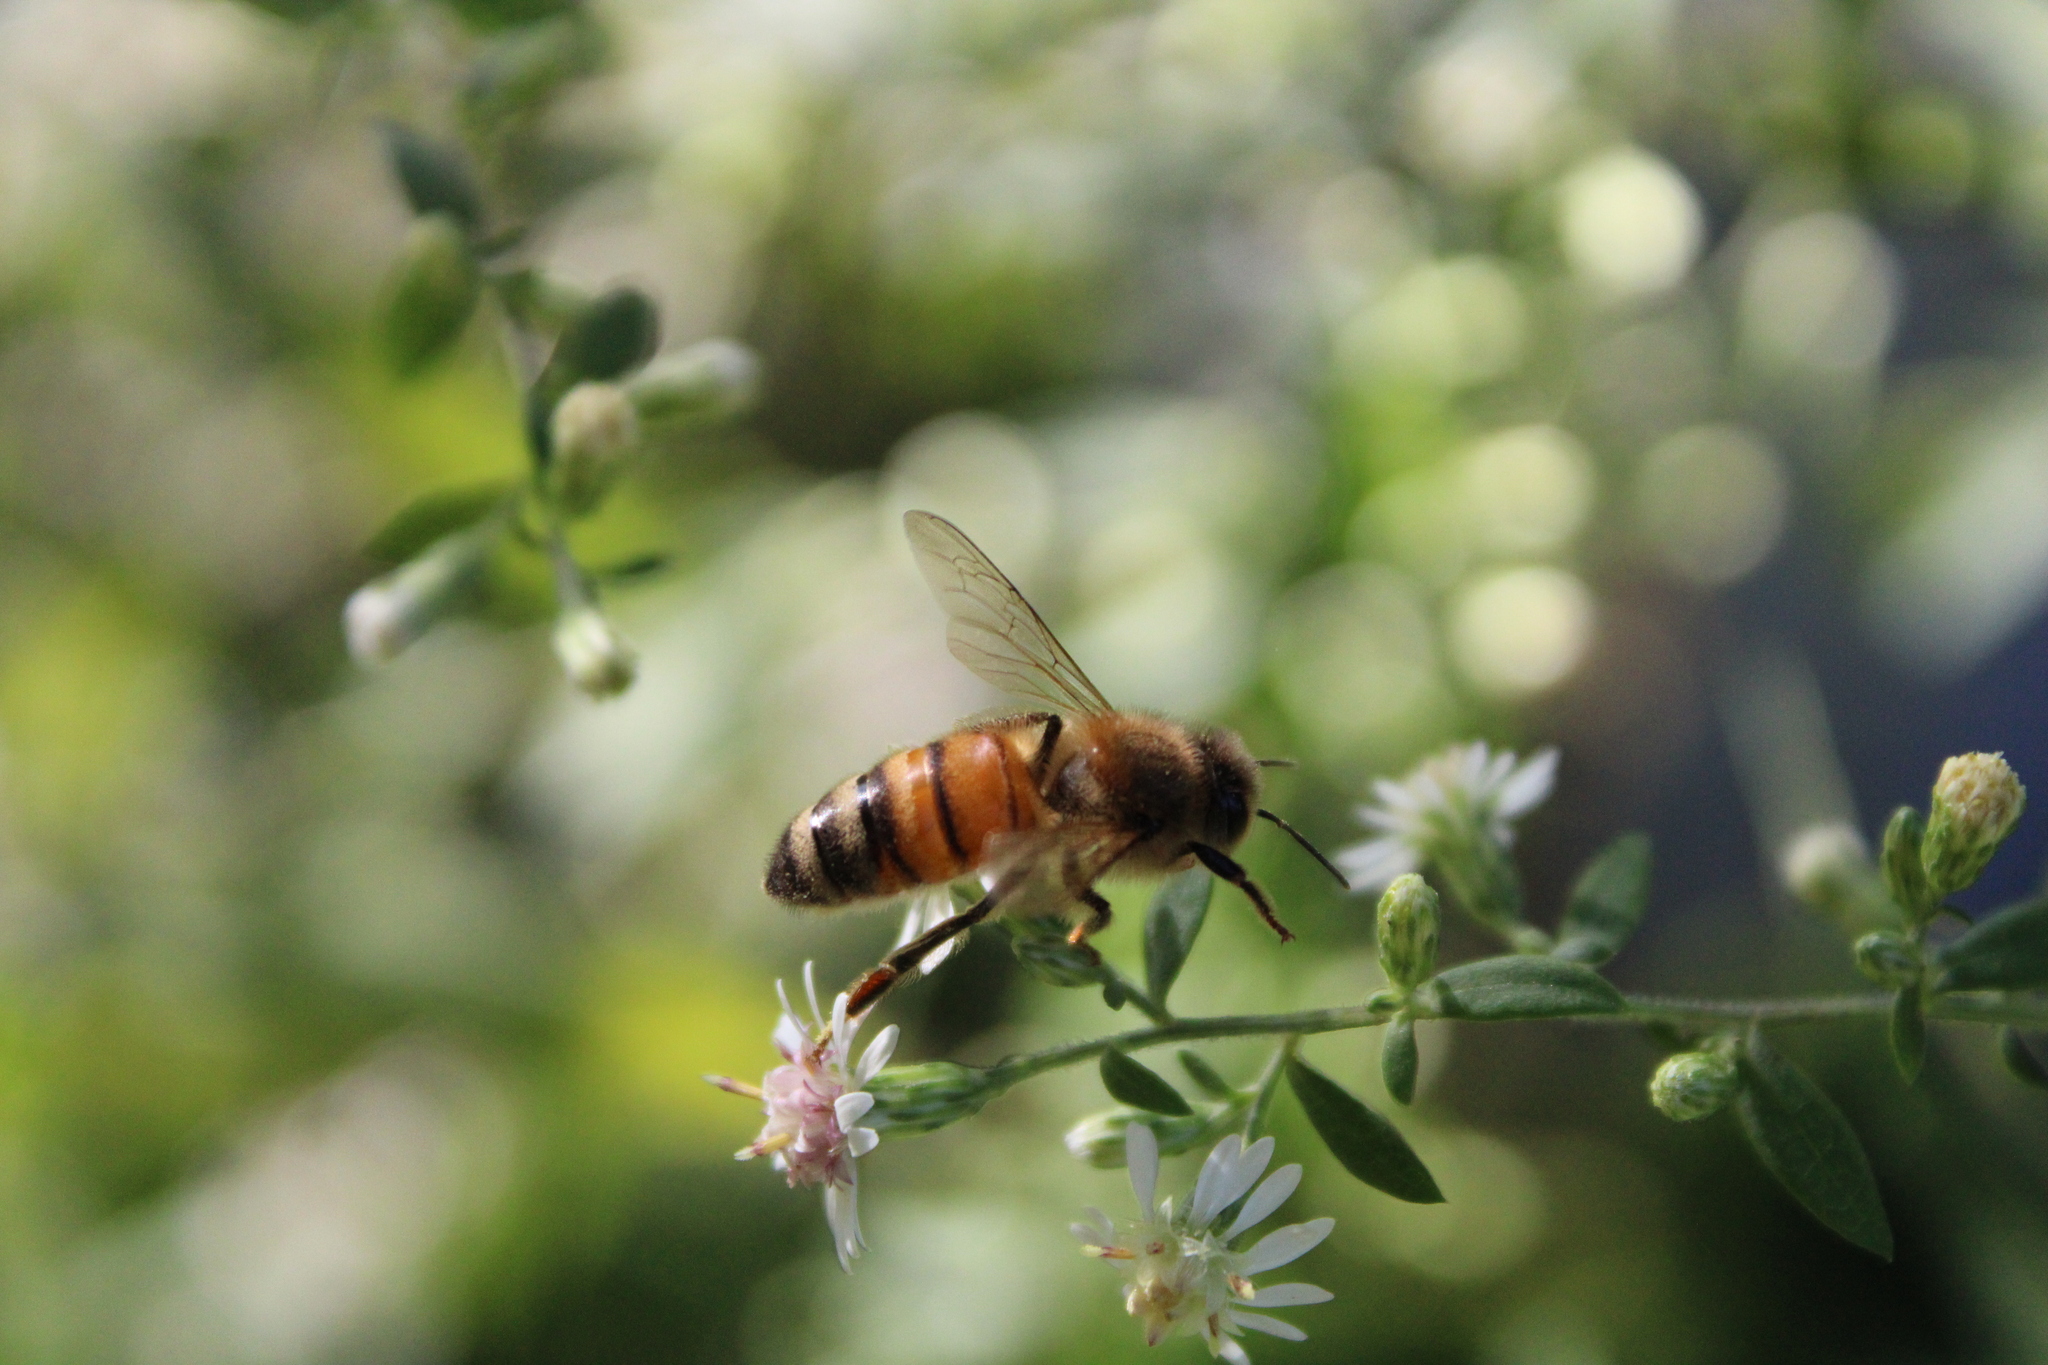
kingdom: Animalia
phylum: Arthropoda
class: Insecta
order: Hymenoptera
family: Apidae
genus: Apis
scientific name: Apis mellifera
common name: Honey bee
